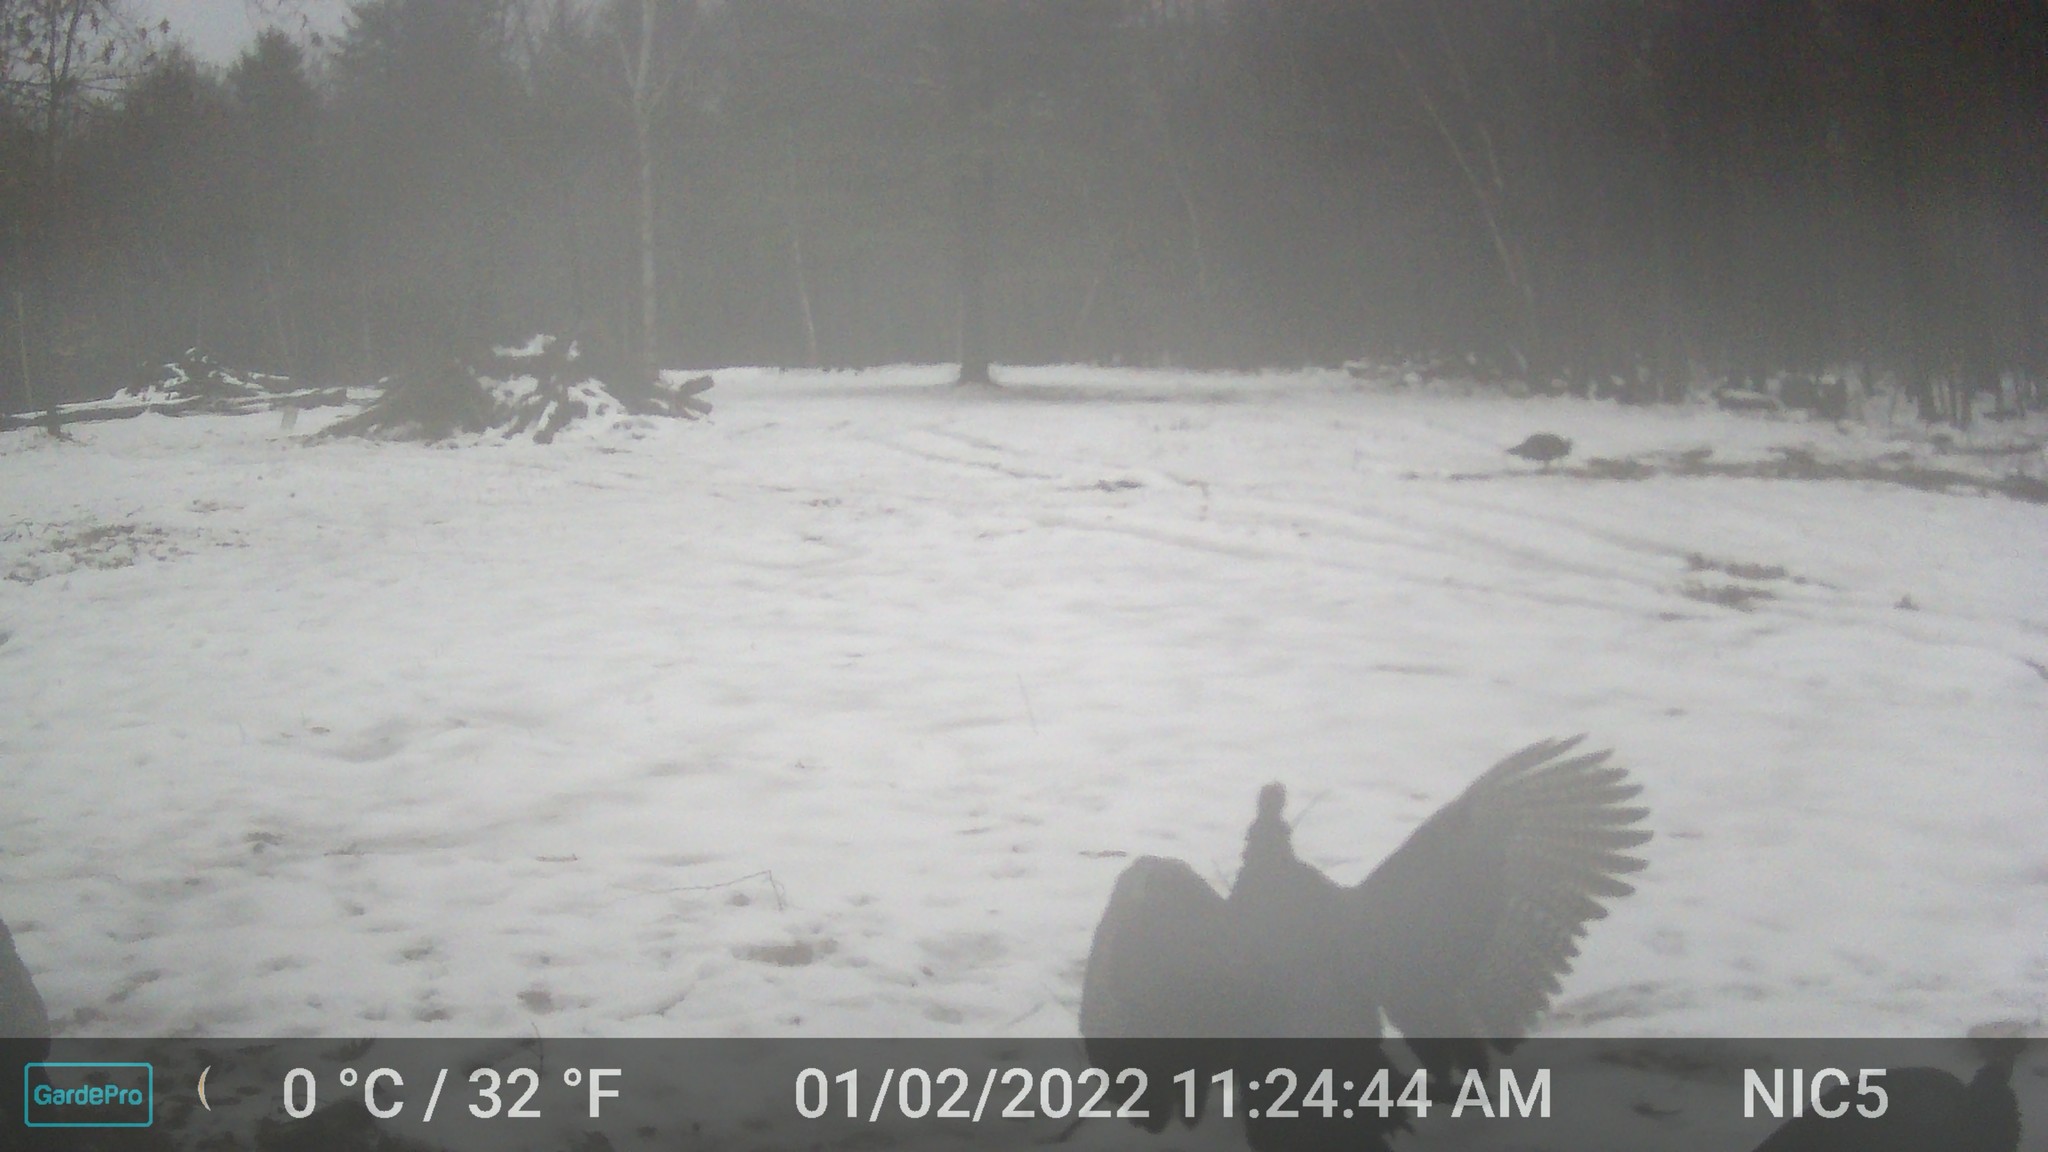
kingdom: Animalia
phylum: Chordata
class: Aves
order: Galliformes
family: Phasianidae
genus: Meleagris
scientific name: Meleagris gallopavo
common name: Wild turkey
